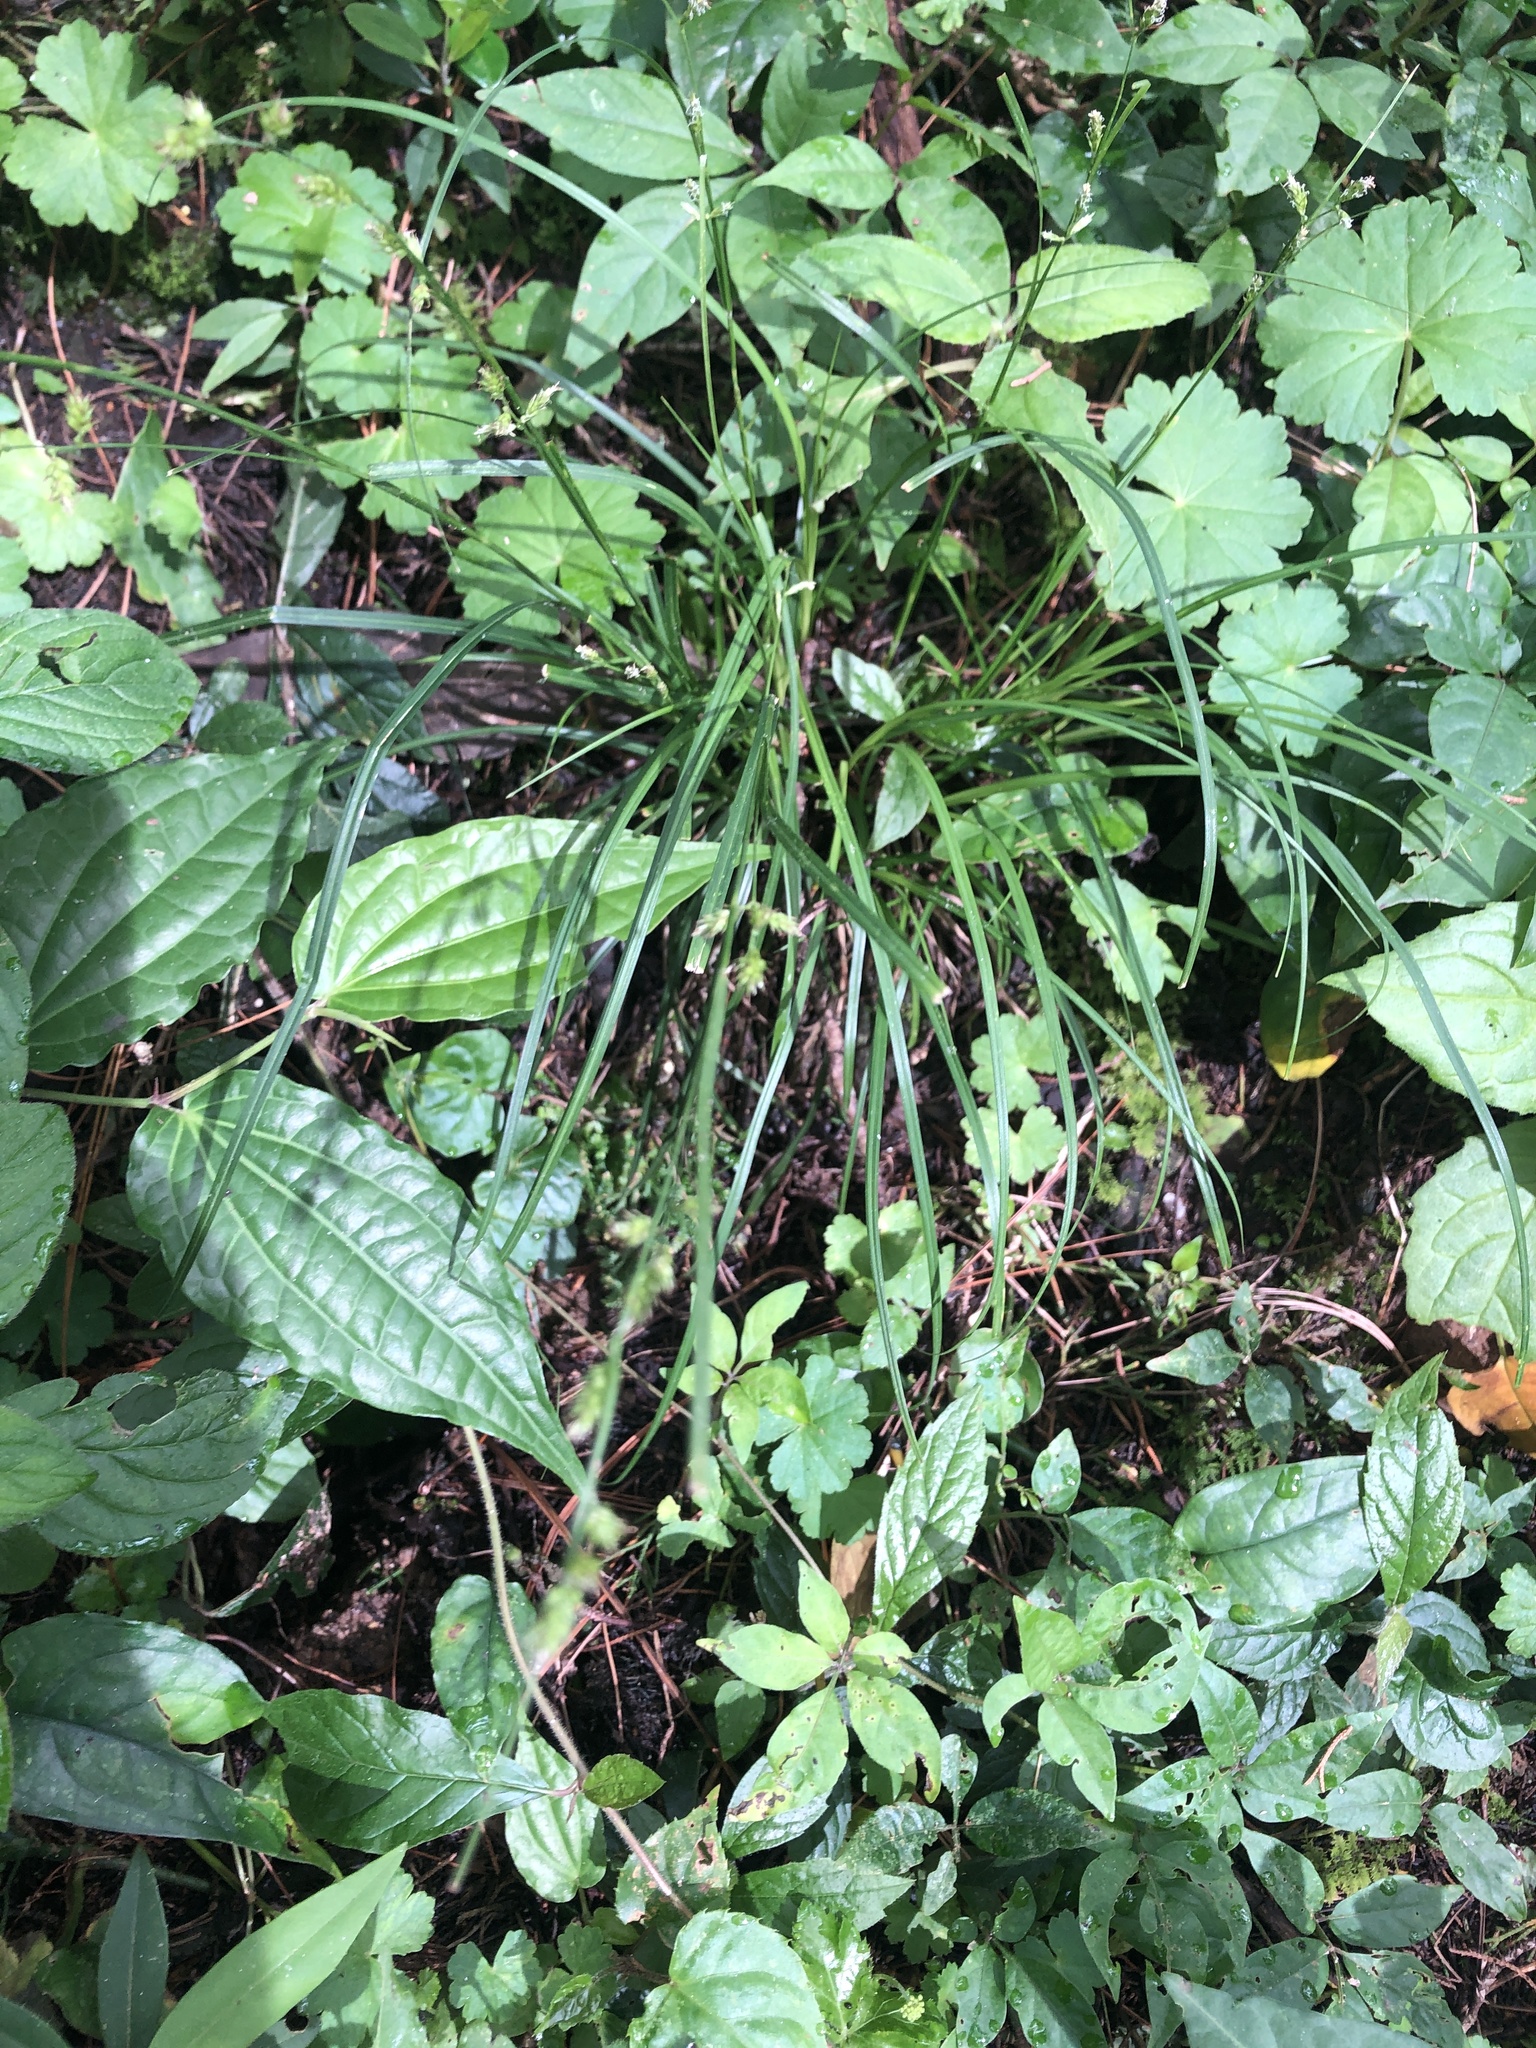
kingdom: Plantae
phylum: Tracheophyta
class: Liliopsida
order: Poales
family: Cyperaceae
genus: Carex
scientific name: Carex polystachya
